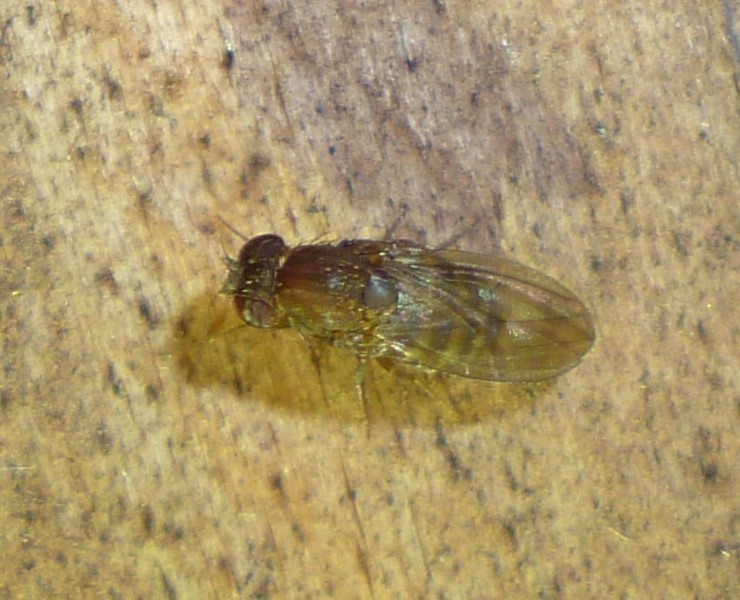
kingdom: Animalia
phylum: Arthropoda
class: Insecta
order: Diptera
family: Drosophilidae
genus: Drosophila
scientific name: Drosophila
